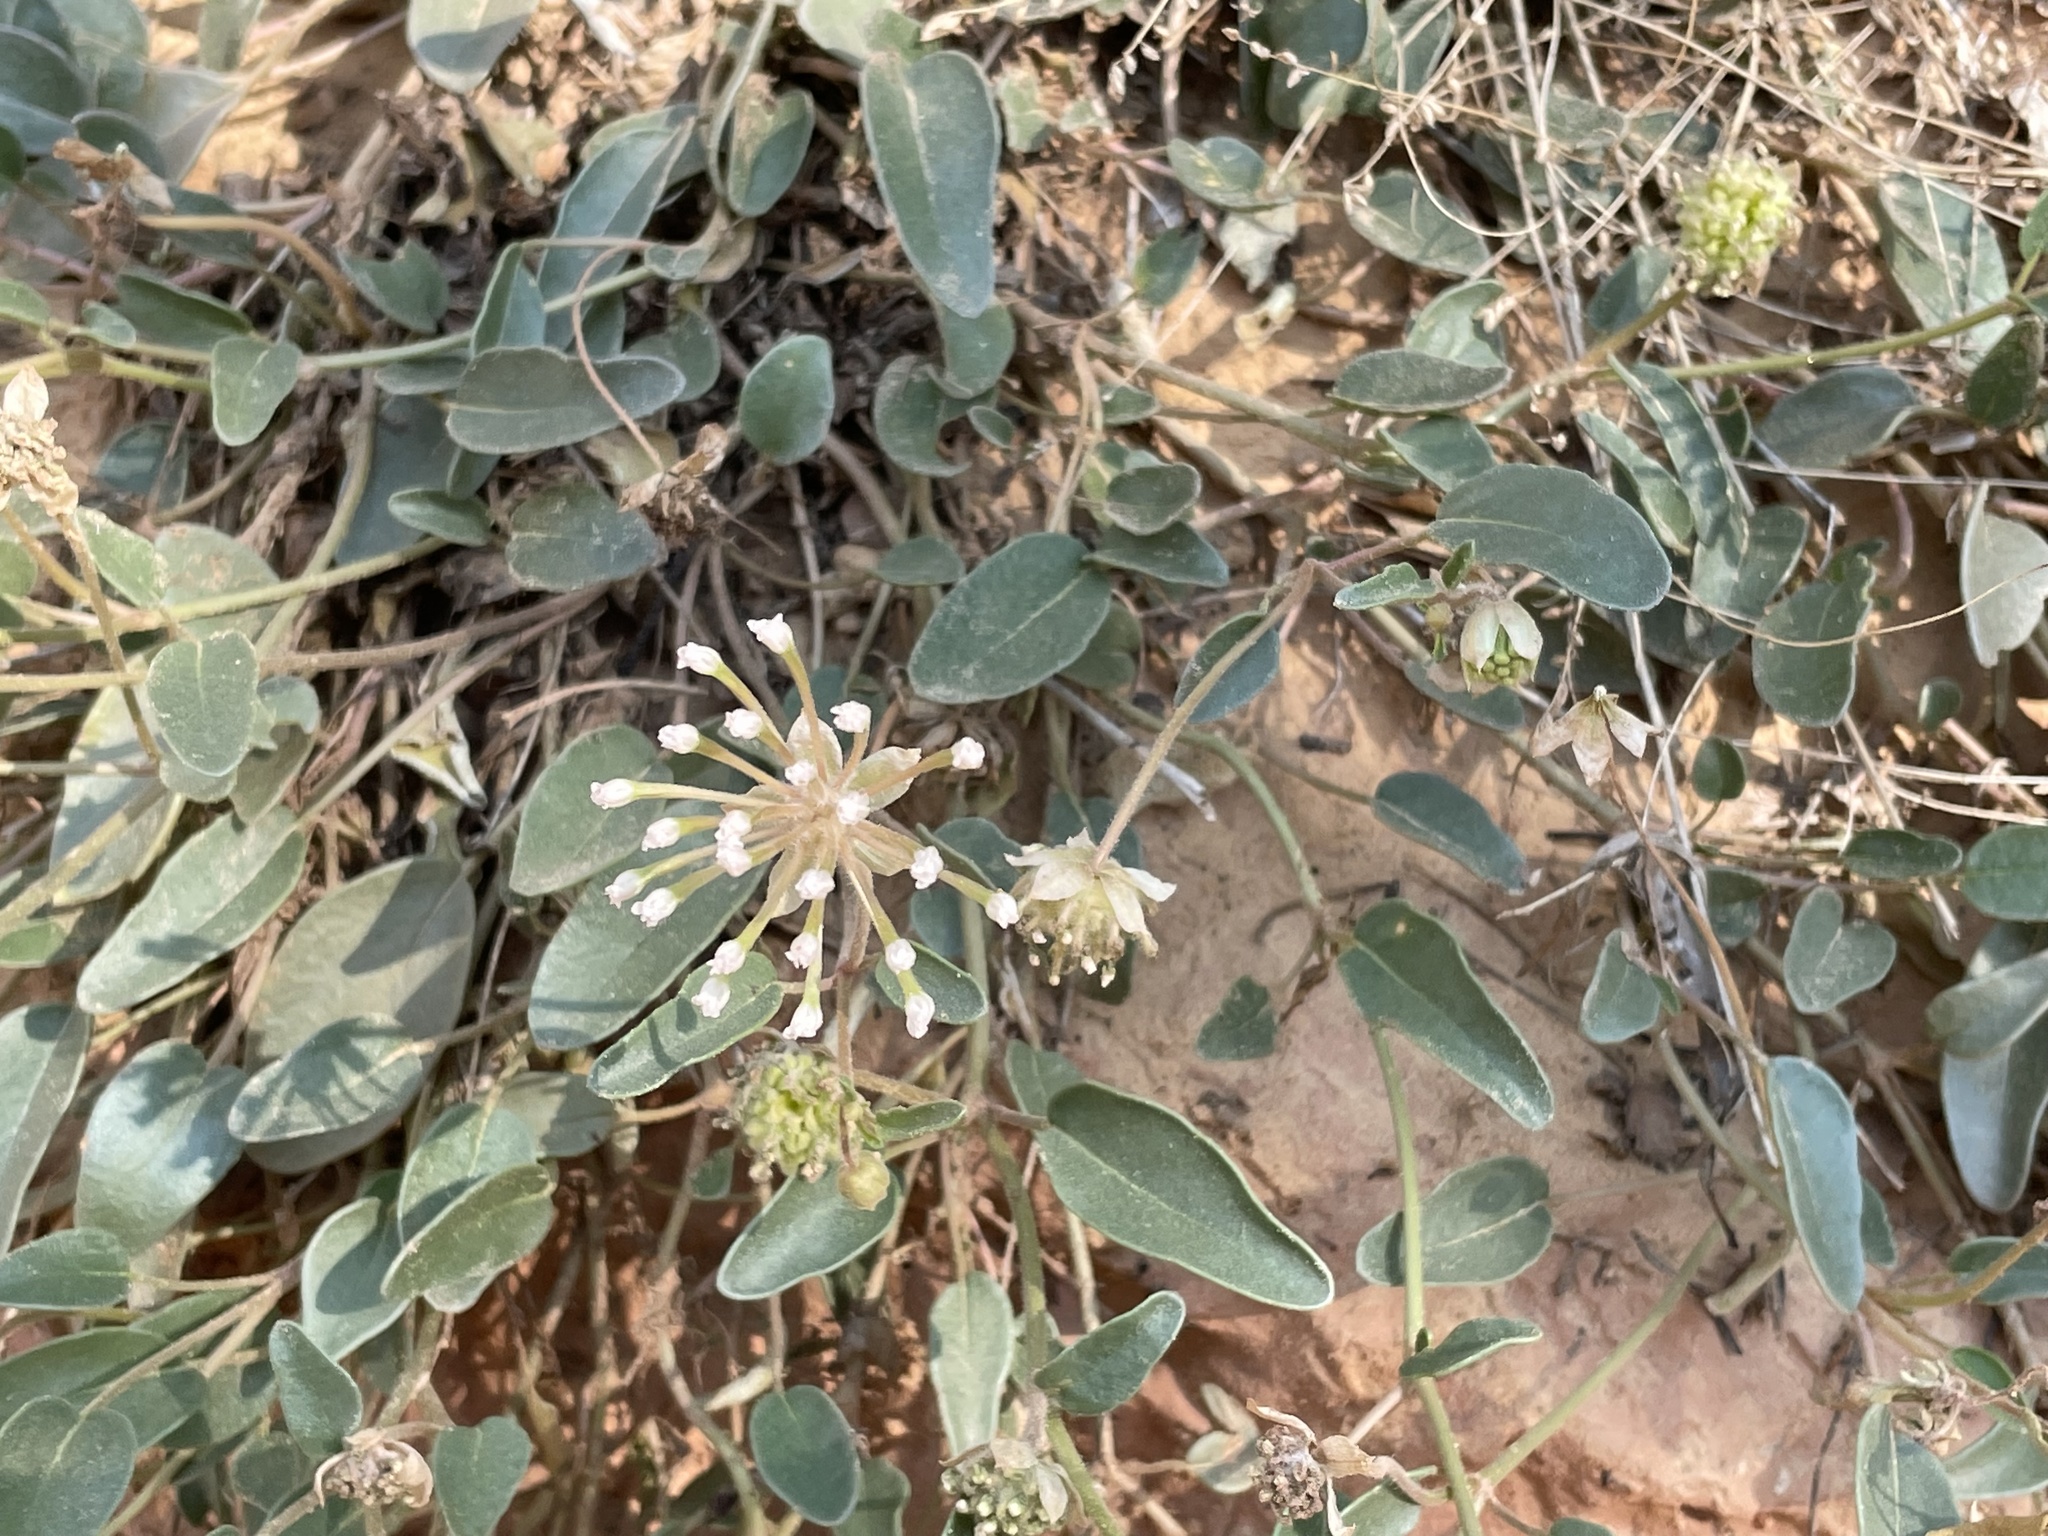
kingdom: Plantae
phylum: Tracheophyta
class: Magnoliopsida
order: Caryophyllales
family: Nyctaginaceae
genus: Abronia
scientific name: Abronia elliptica
